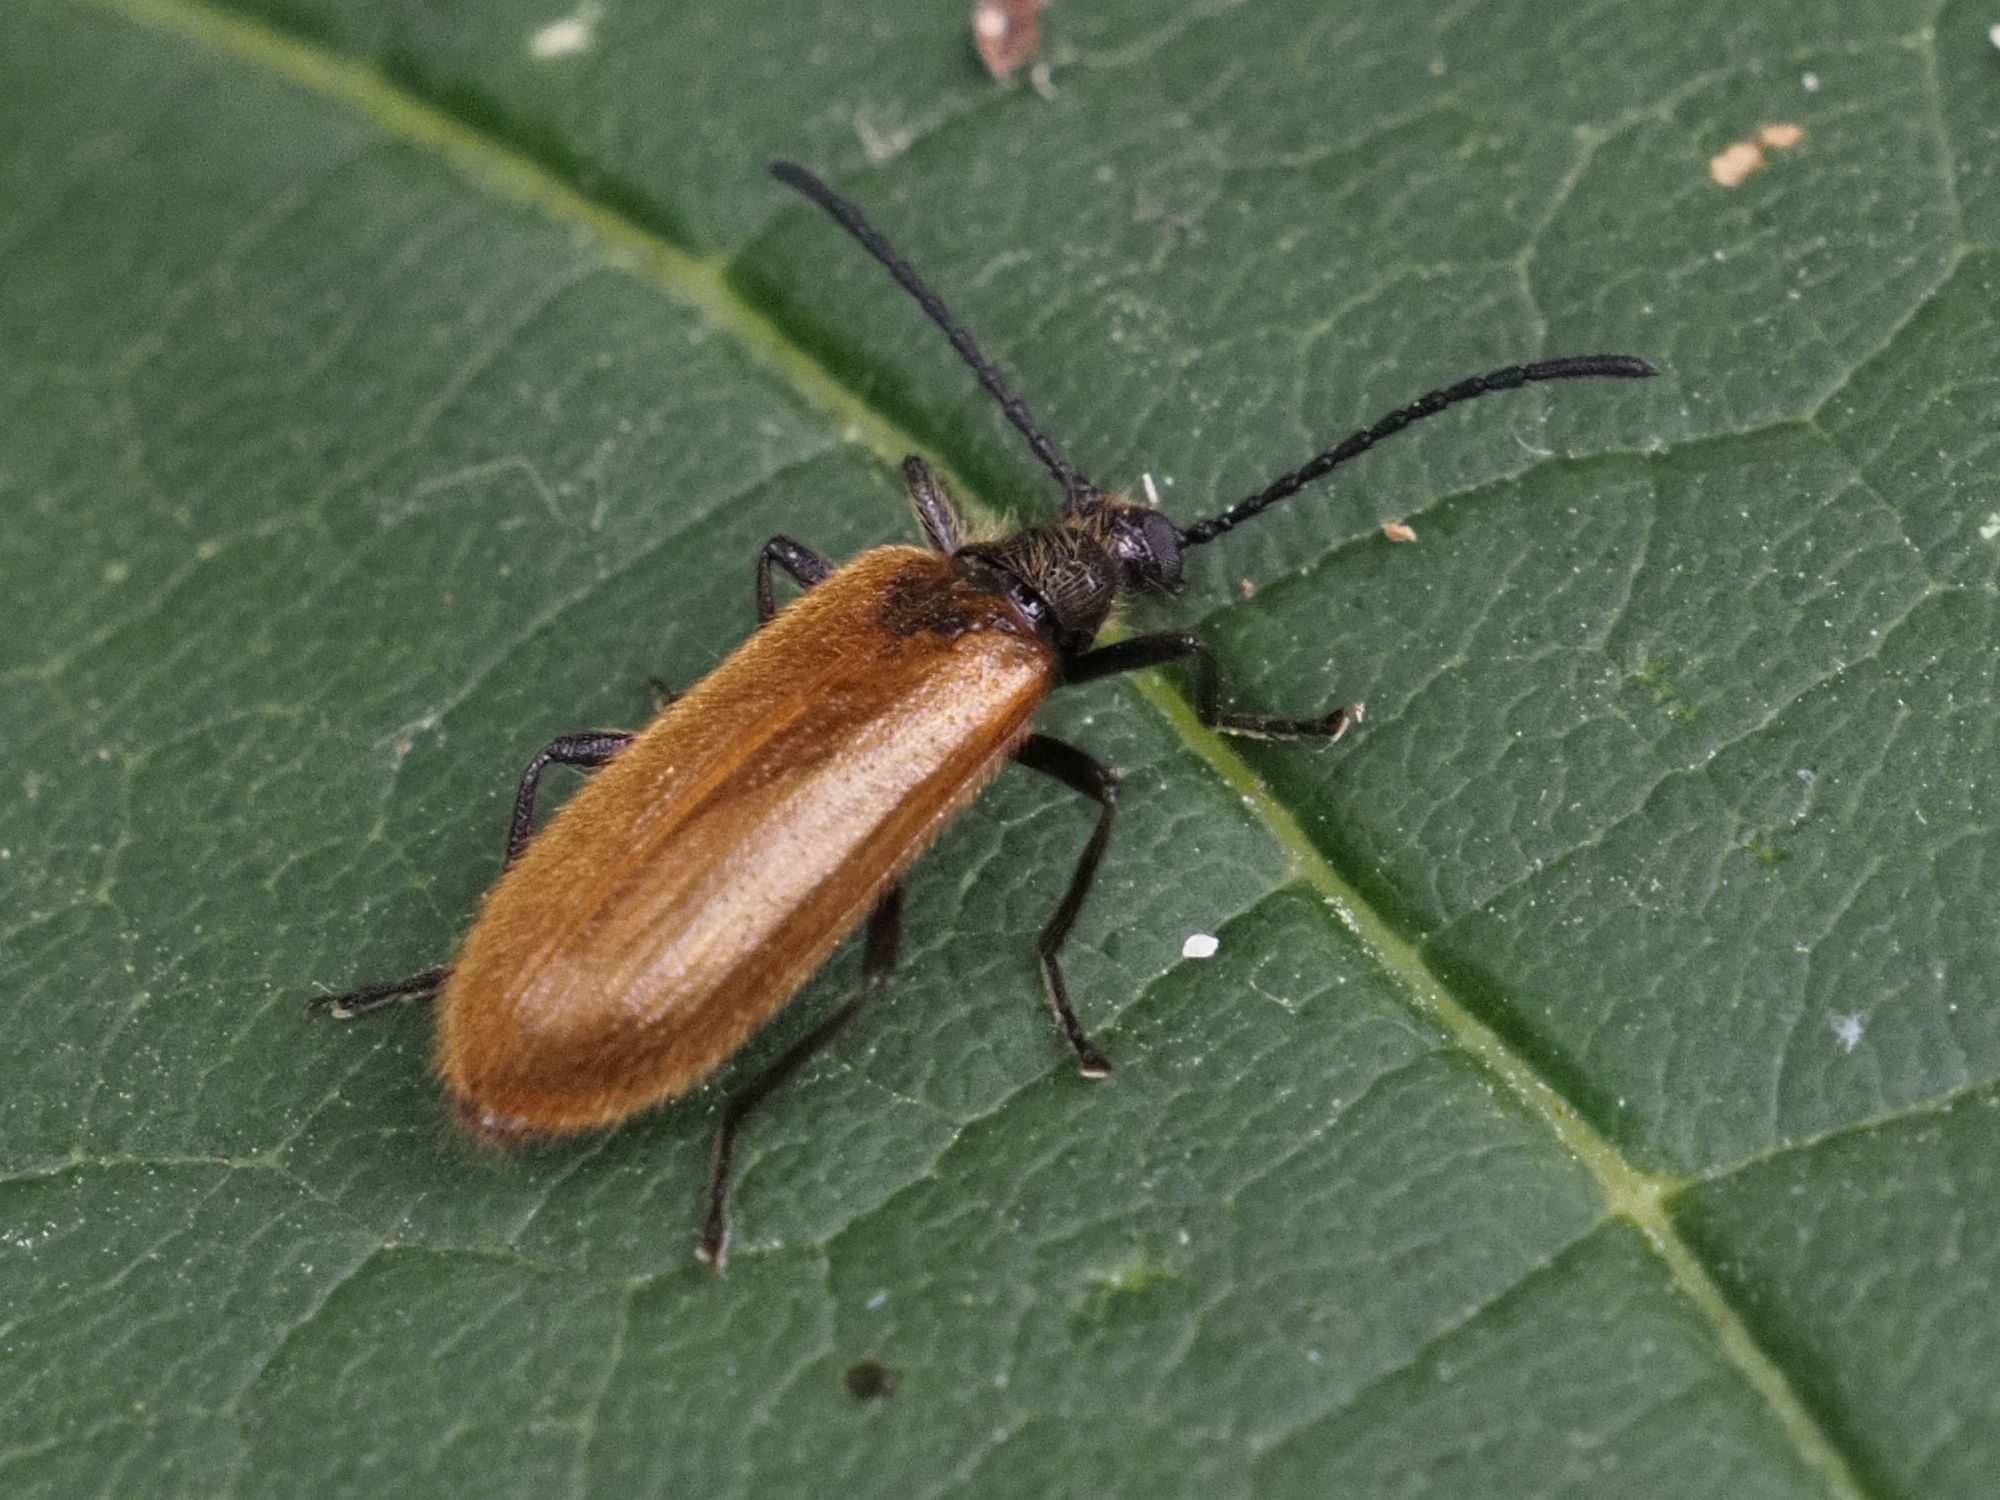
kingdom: Animalia
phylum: Arthropoda
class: Insecta
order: Coleoptera
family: Tenebrionidae
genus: Lagria
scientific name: Lagria hirta
